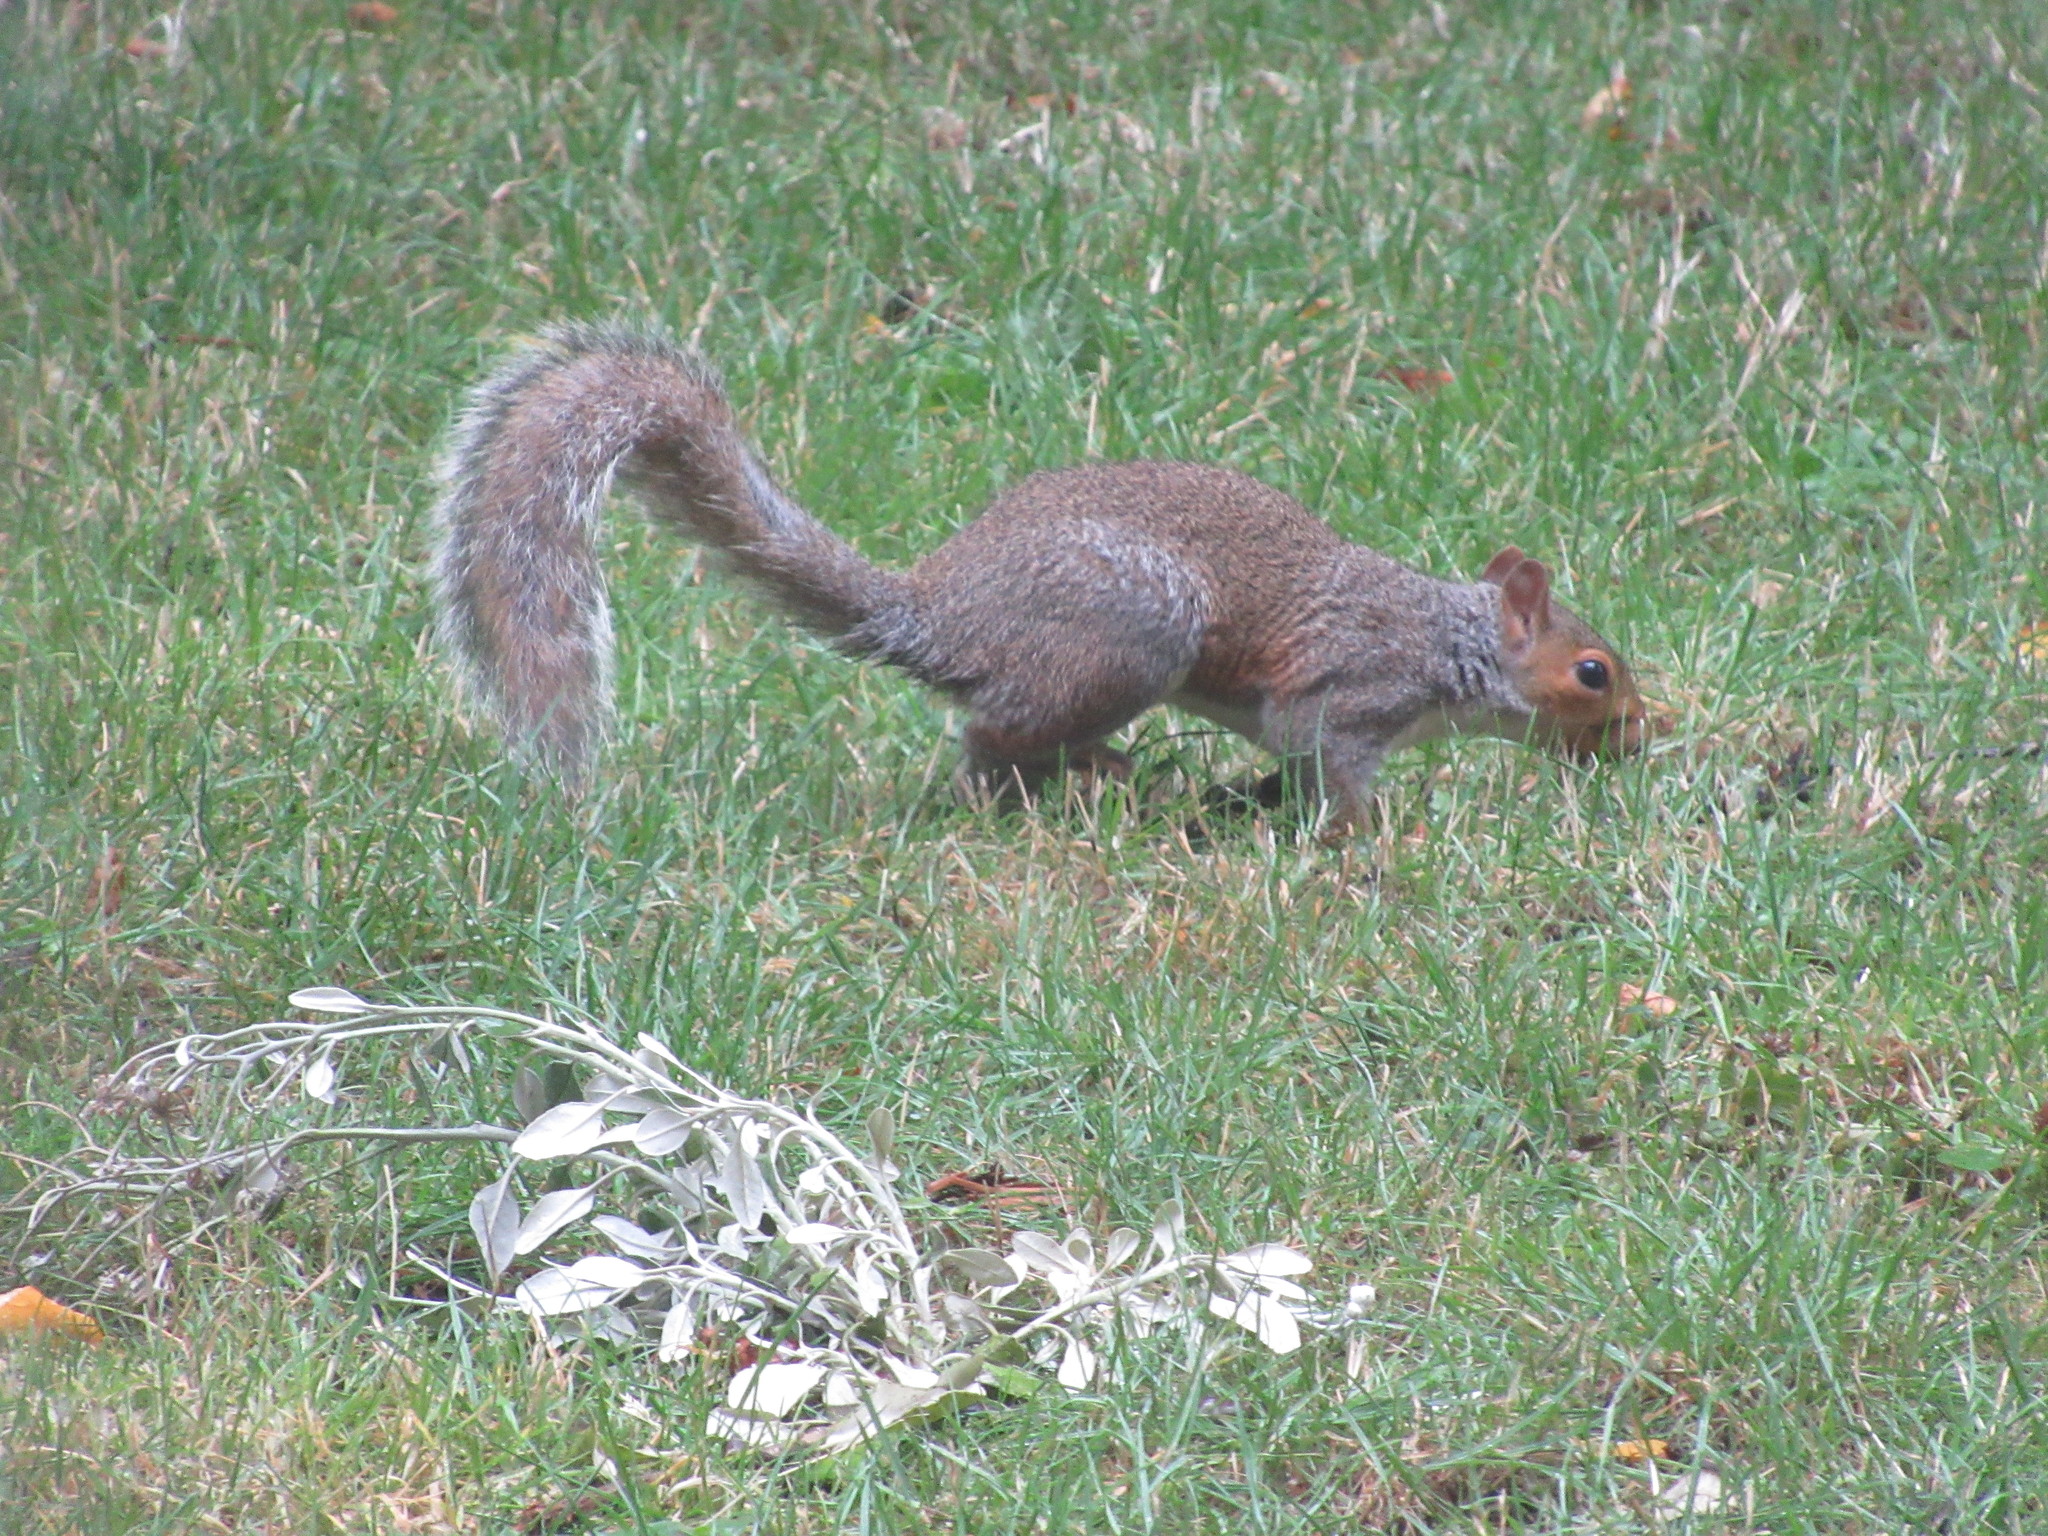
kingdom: Animalia
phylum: Chordata
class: Mammalia
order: Rodentia
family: Sciuridae
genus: Sciurus
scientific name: Sciurus carolinensis
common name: Eastern gray squirrel
